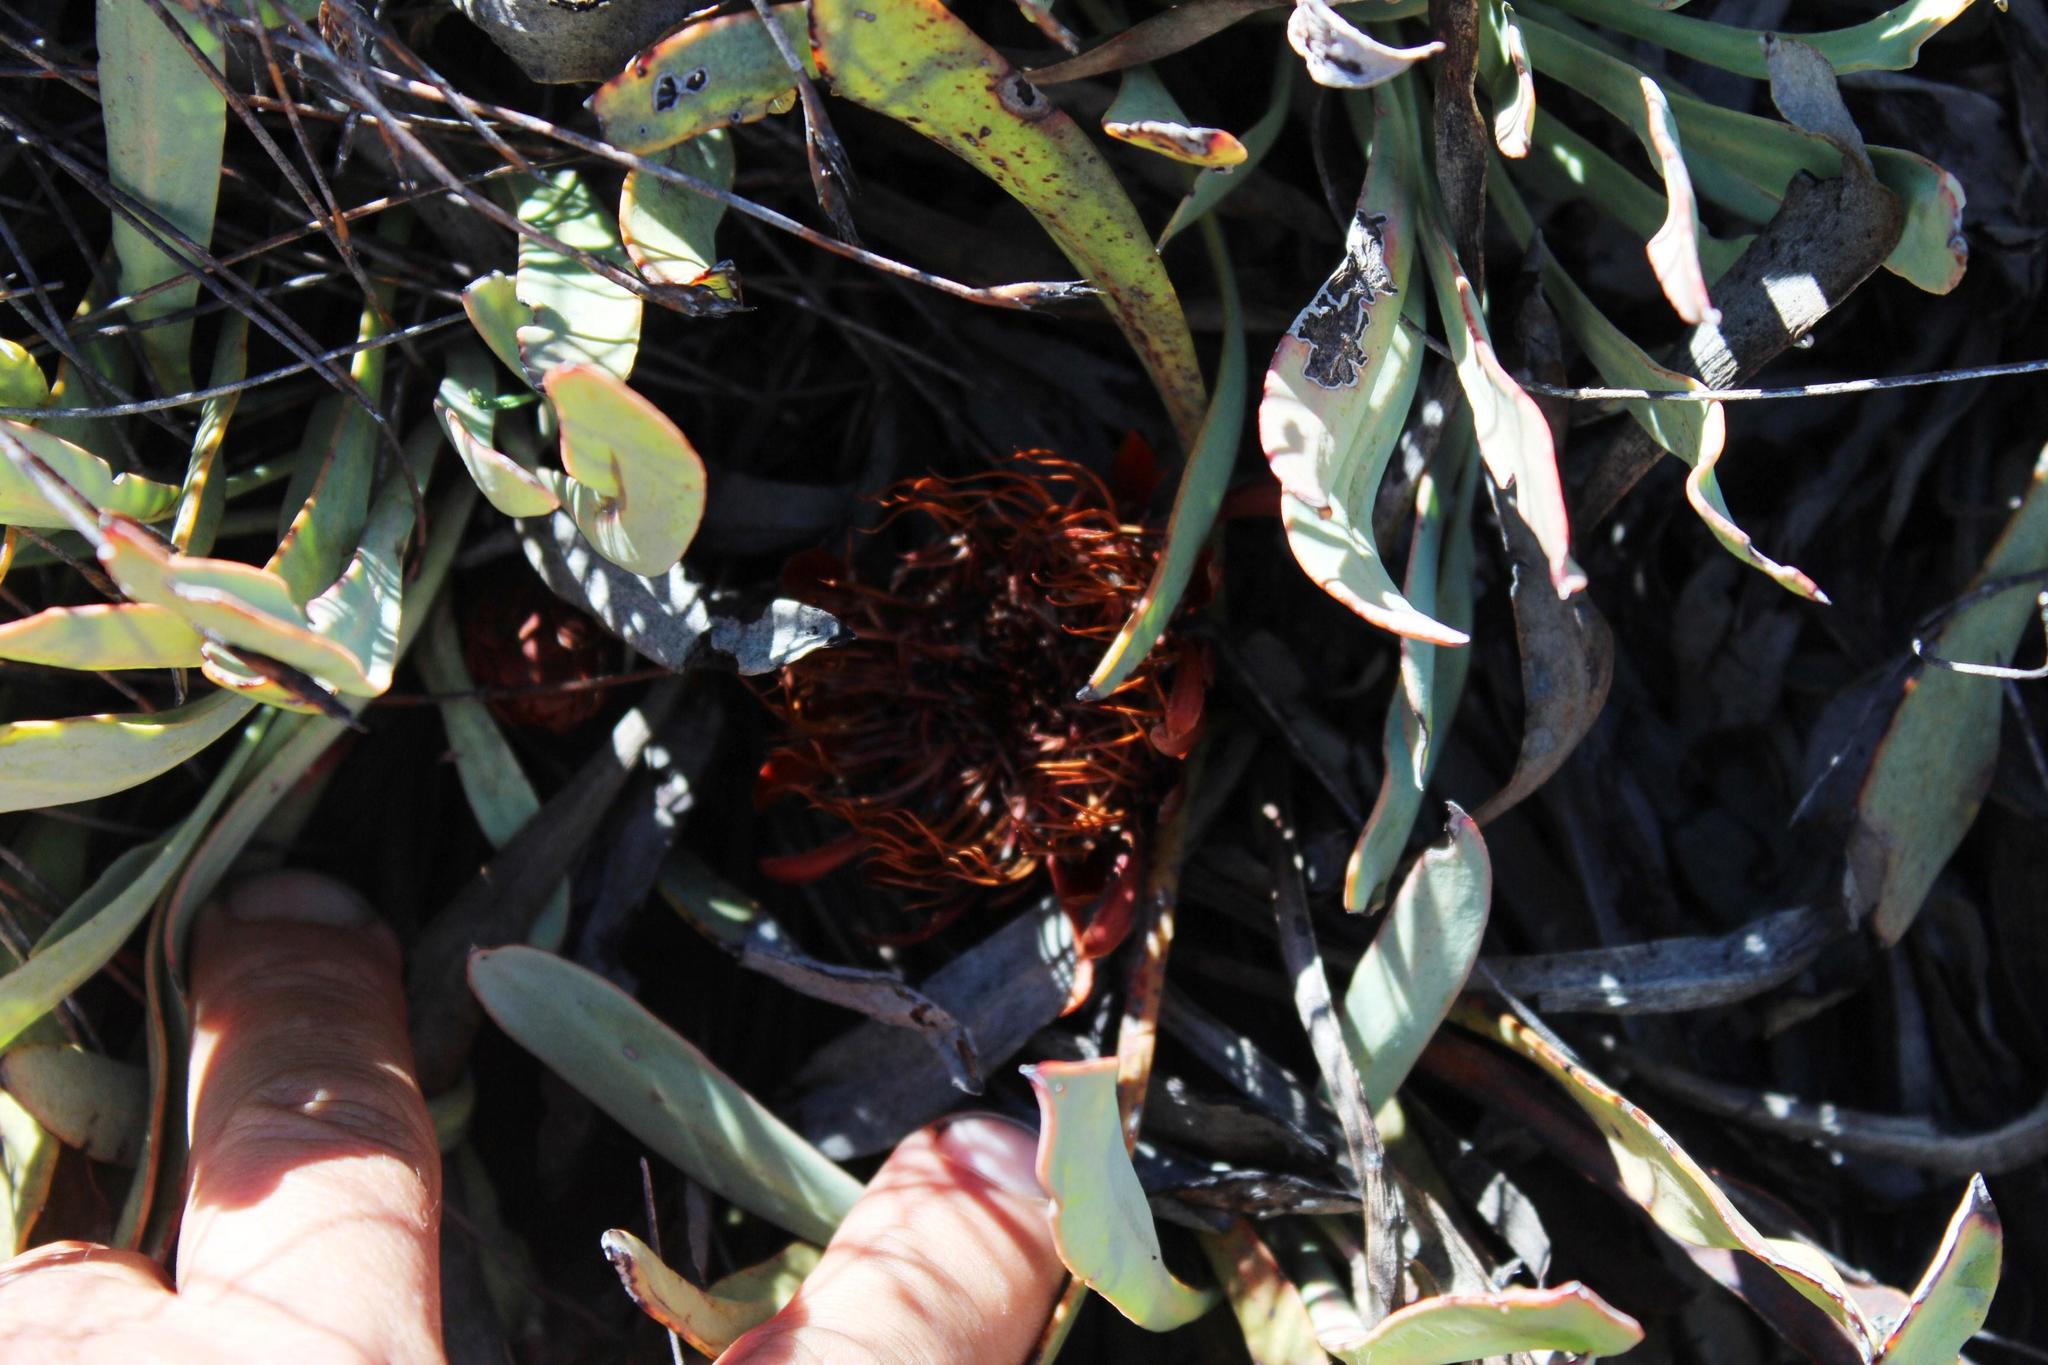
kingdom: Plantae
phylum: Tracheophyta
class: Magnoliopsida
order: Proteales
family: Proteaceae
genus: Protea
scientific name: Protea laevis
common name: Smooth-leaf sugarbush
